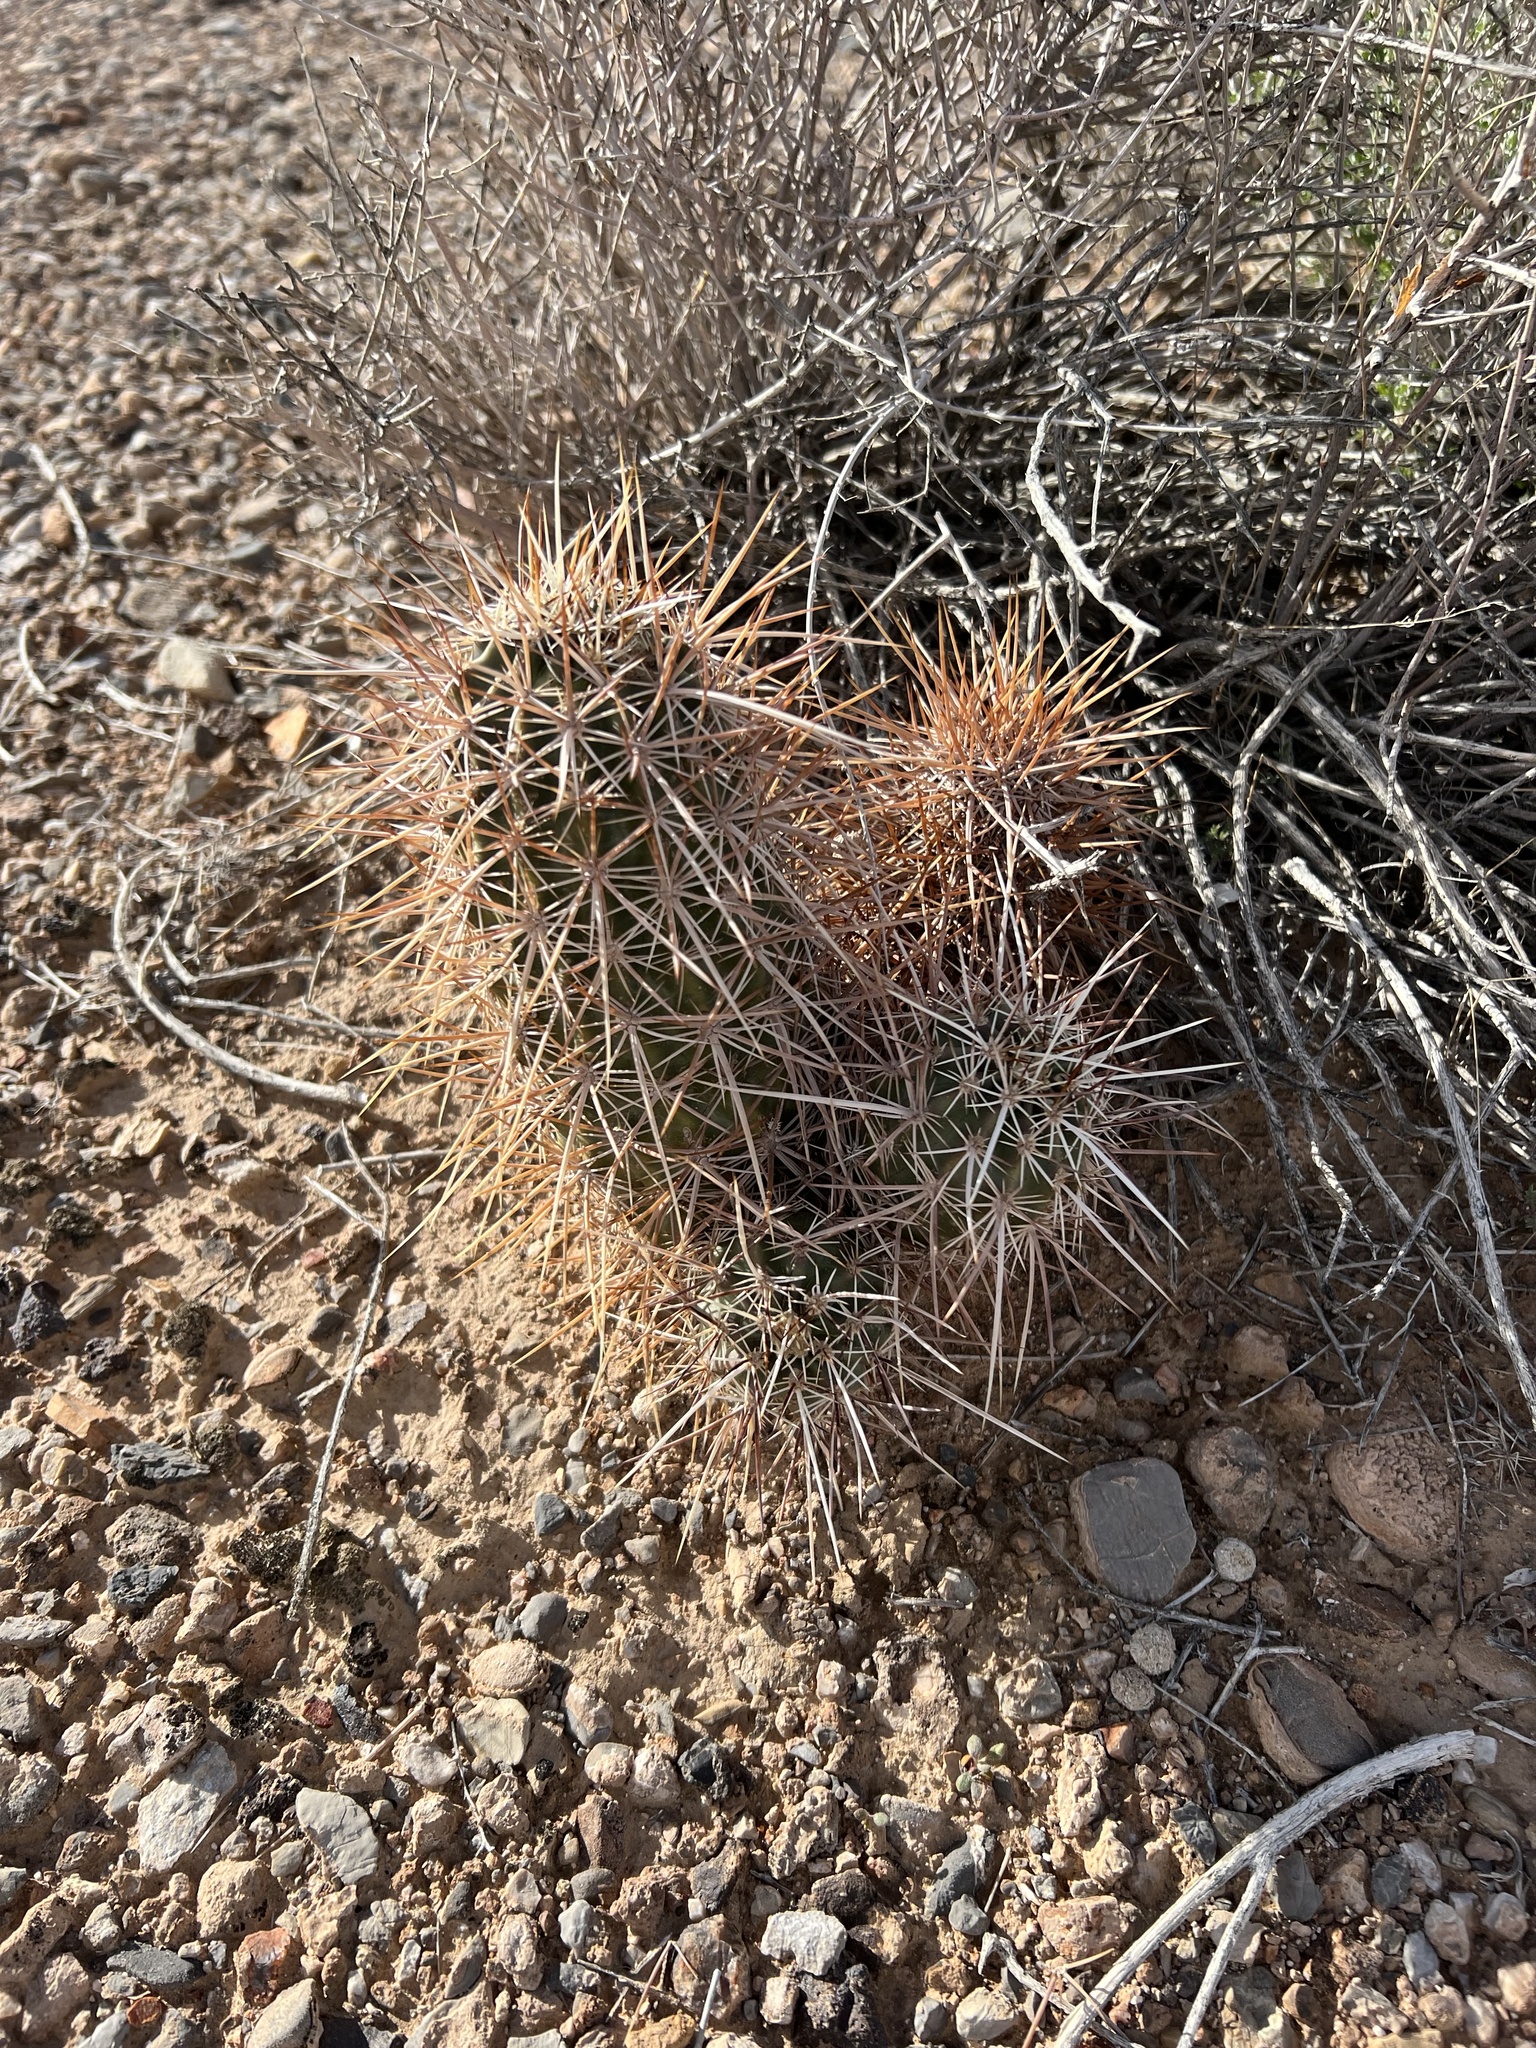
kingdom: Plantae
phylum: Tracheophyta
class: Magnoliopsida
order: Caryophyllales
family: Cactaceae
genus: Echinocereus
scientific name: Echinocereus engelmannii
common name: Engelmann's hedgehog cactus
